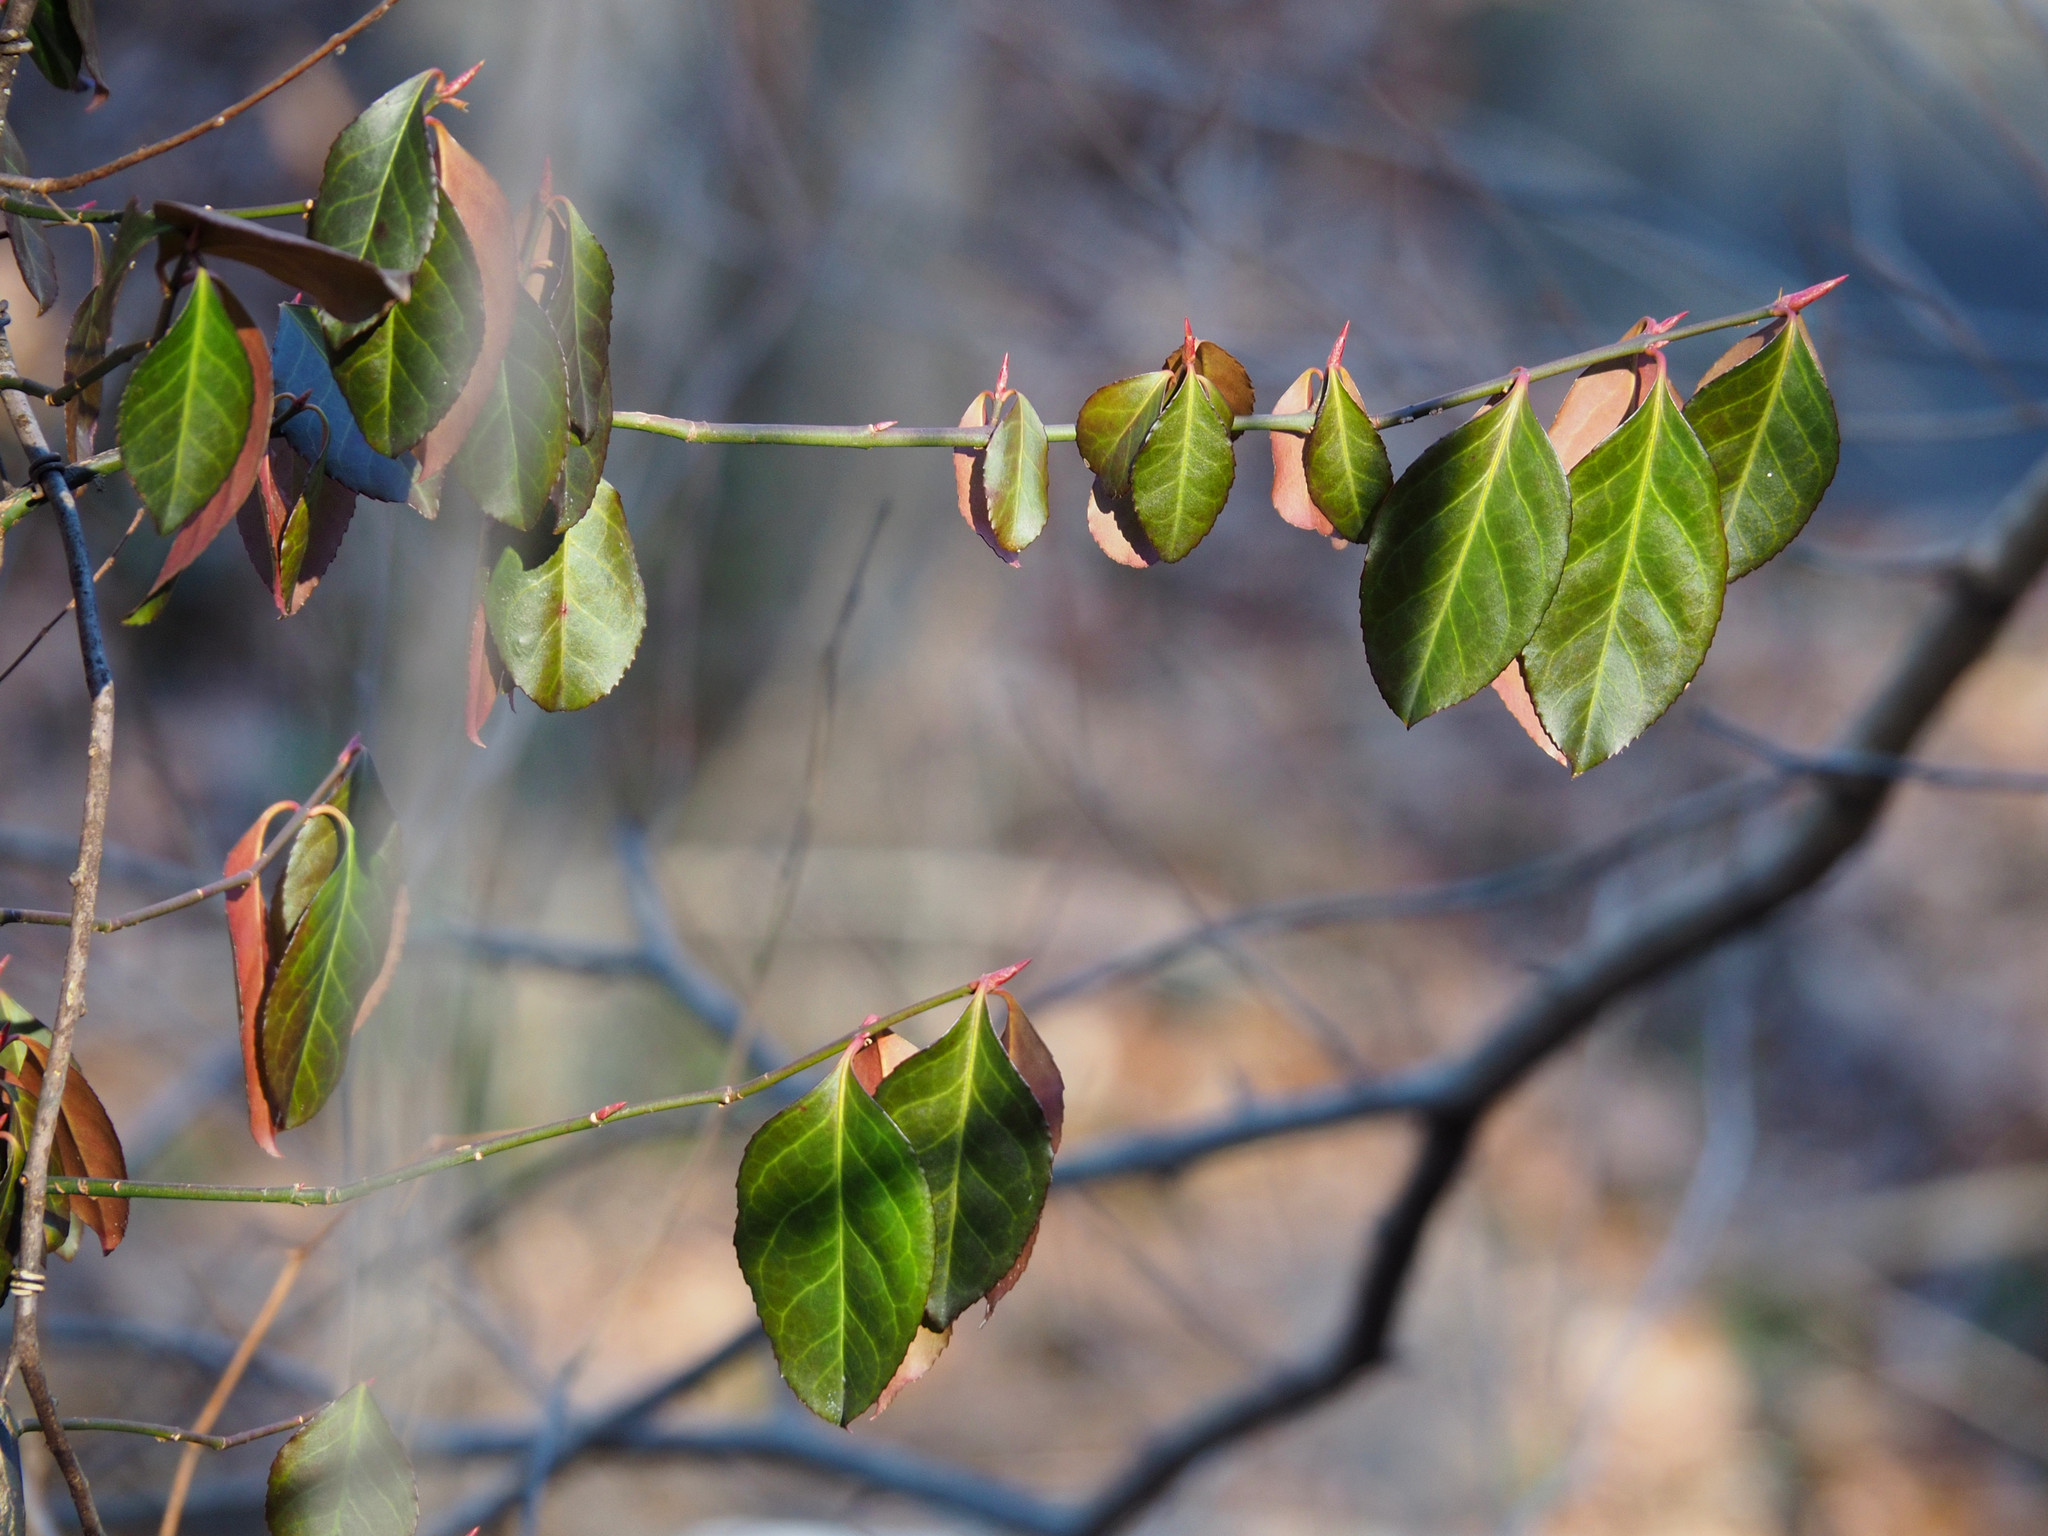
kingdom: Plantae
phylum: Tracheophyta
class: Magnoliopsida
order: Celastrales
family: Celastraceae
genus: Euonymus
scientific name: Euonymus fortunei
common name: Climbing euonymus
